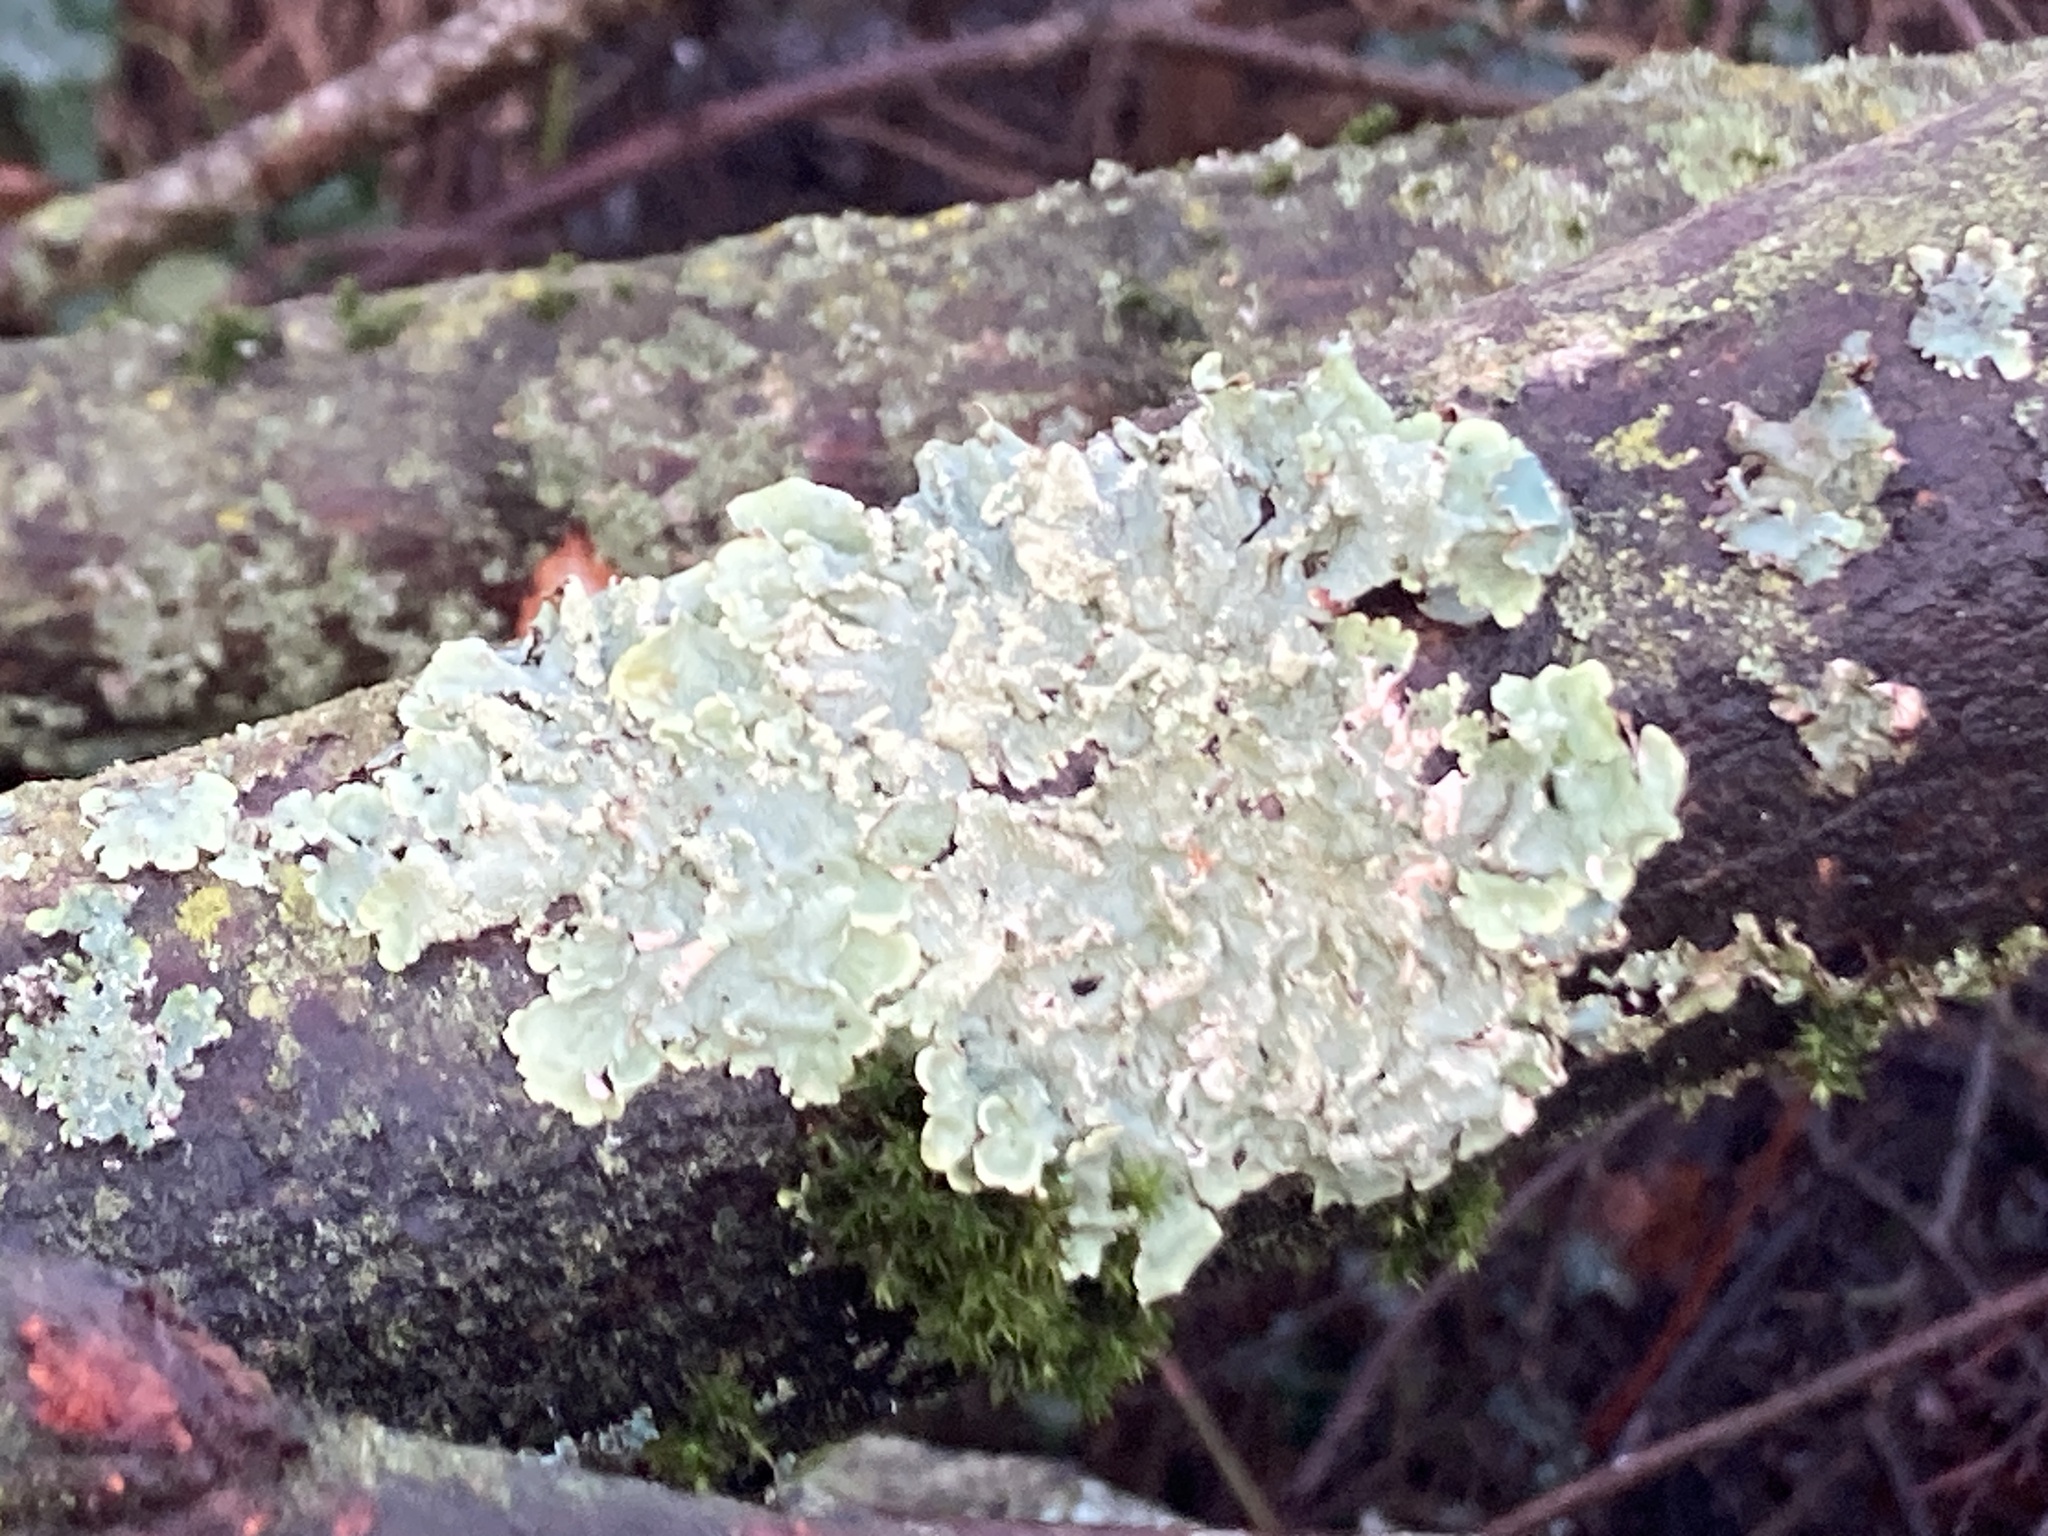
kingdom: Fungi
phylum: Ascomycota
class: Lecanoromycetes
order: Lecanorales
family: Parmeliaceae
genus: Flavoparmelia
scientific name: Flavoparmelia caperata
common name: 40-mile per hour lichen
